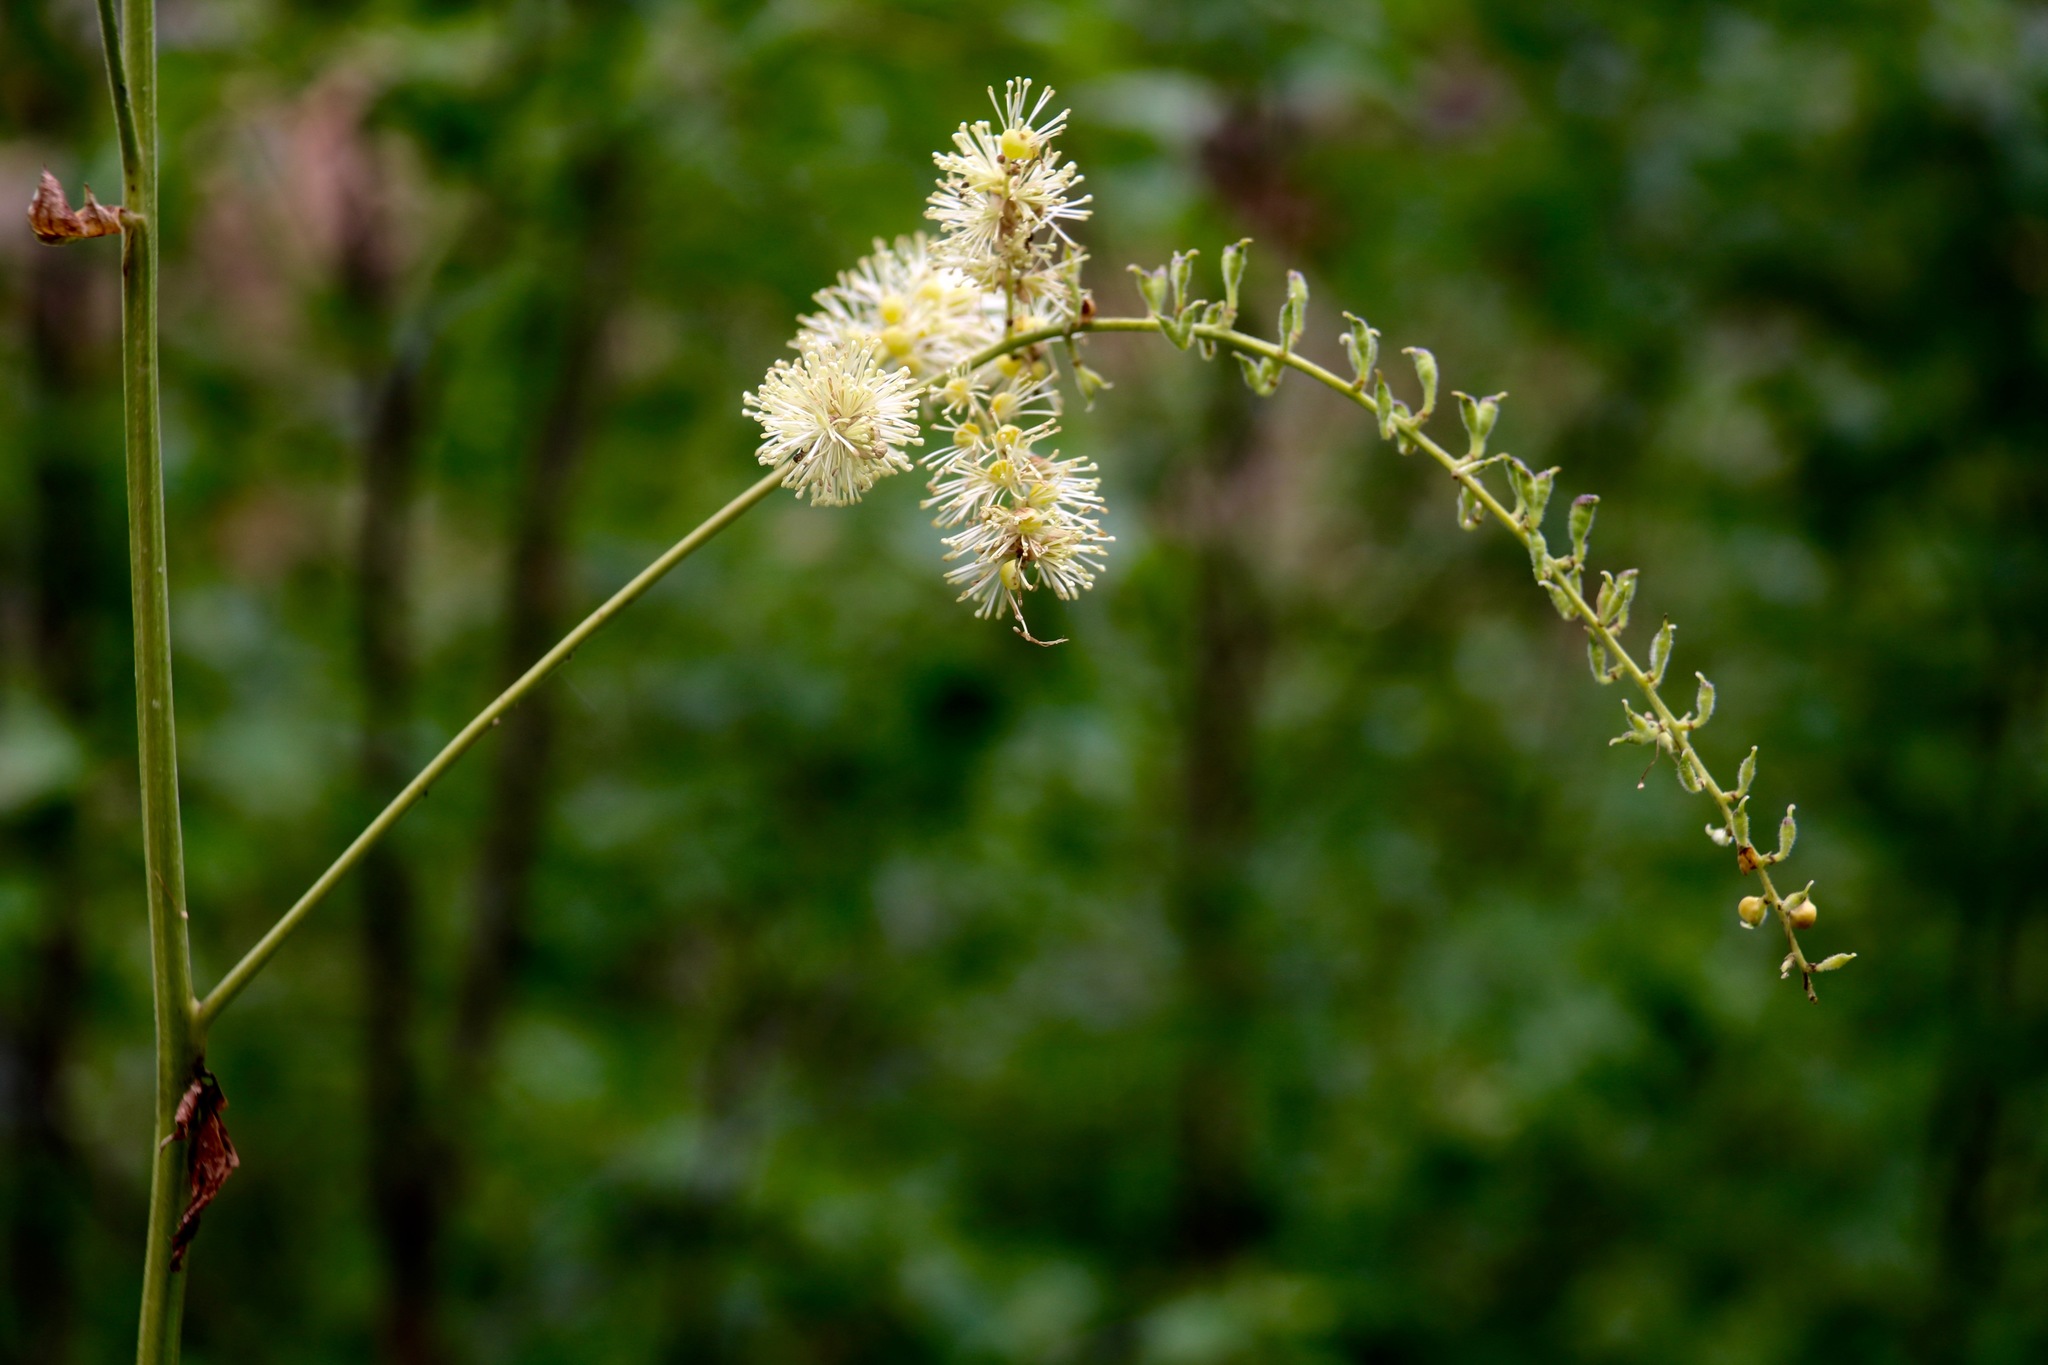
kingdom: Plantae
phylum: Tracheophyta
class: Magnoliopsida
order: Ranunculales
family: Ranunculaceae
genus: Actaea
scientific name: Actaea cimicifuga
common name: Chinese cimicifuga
